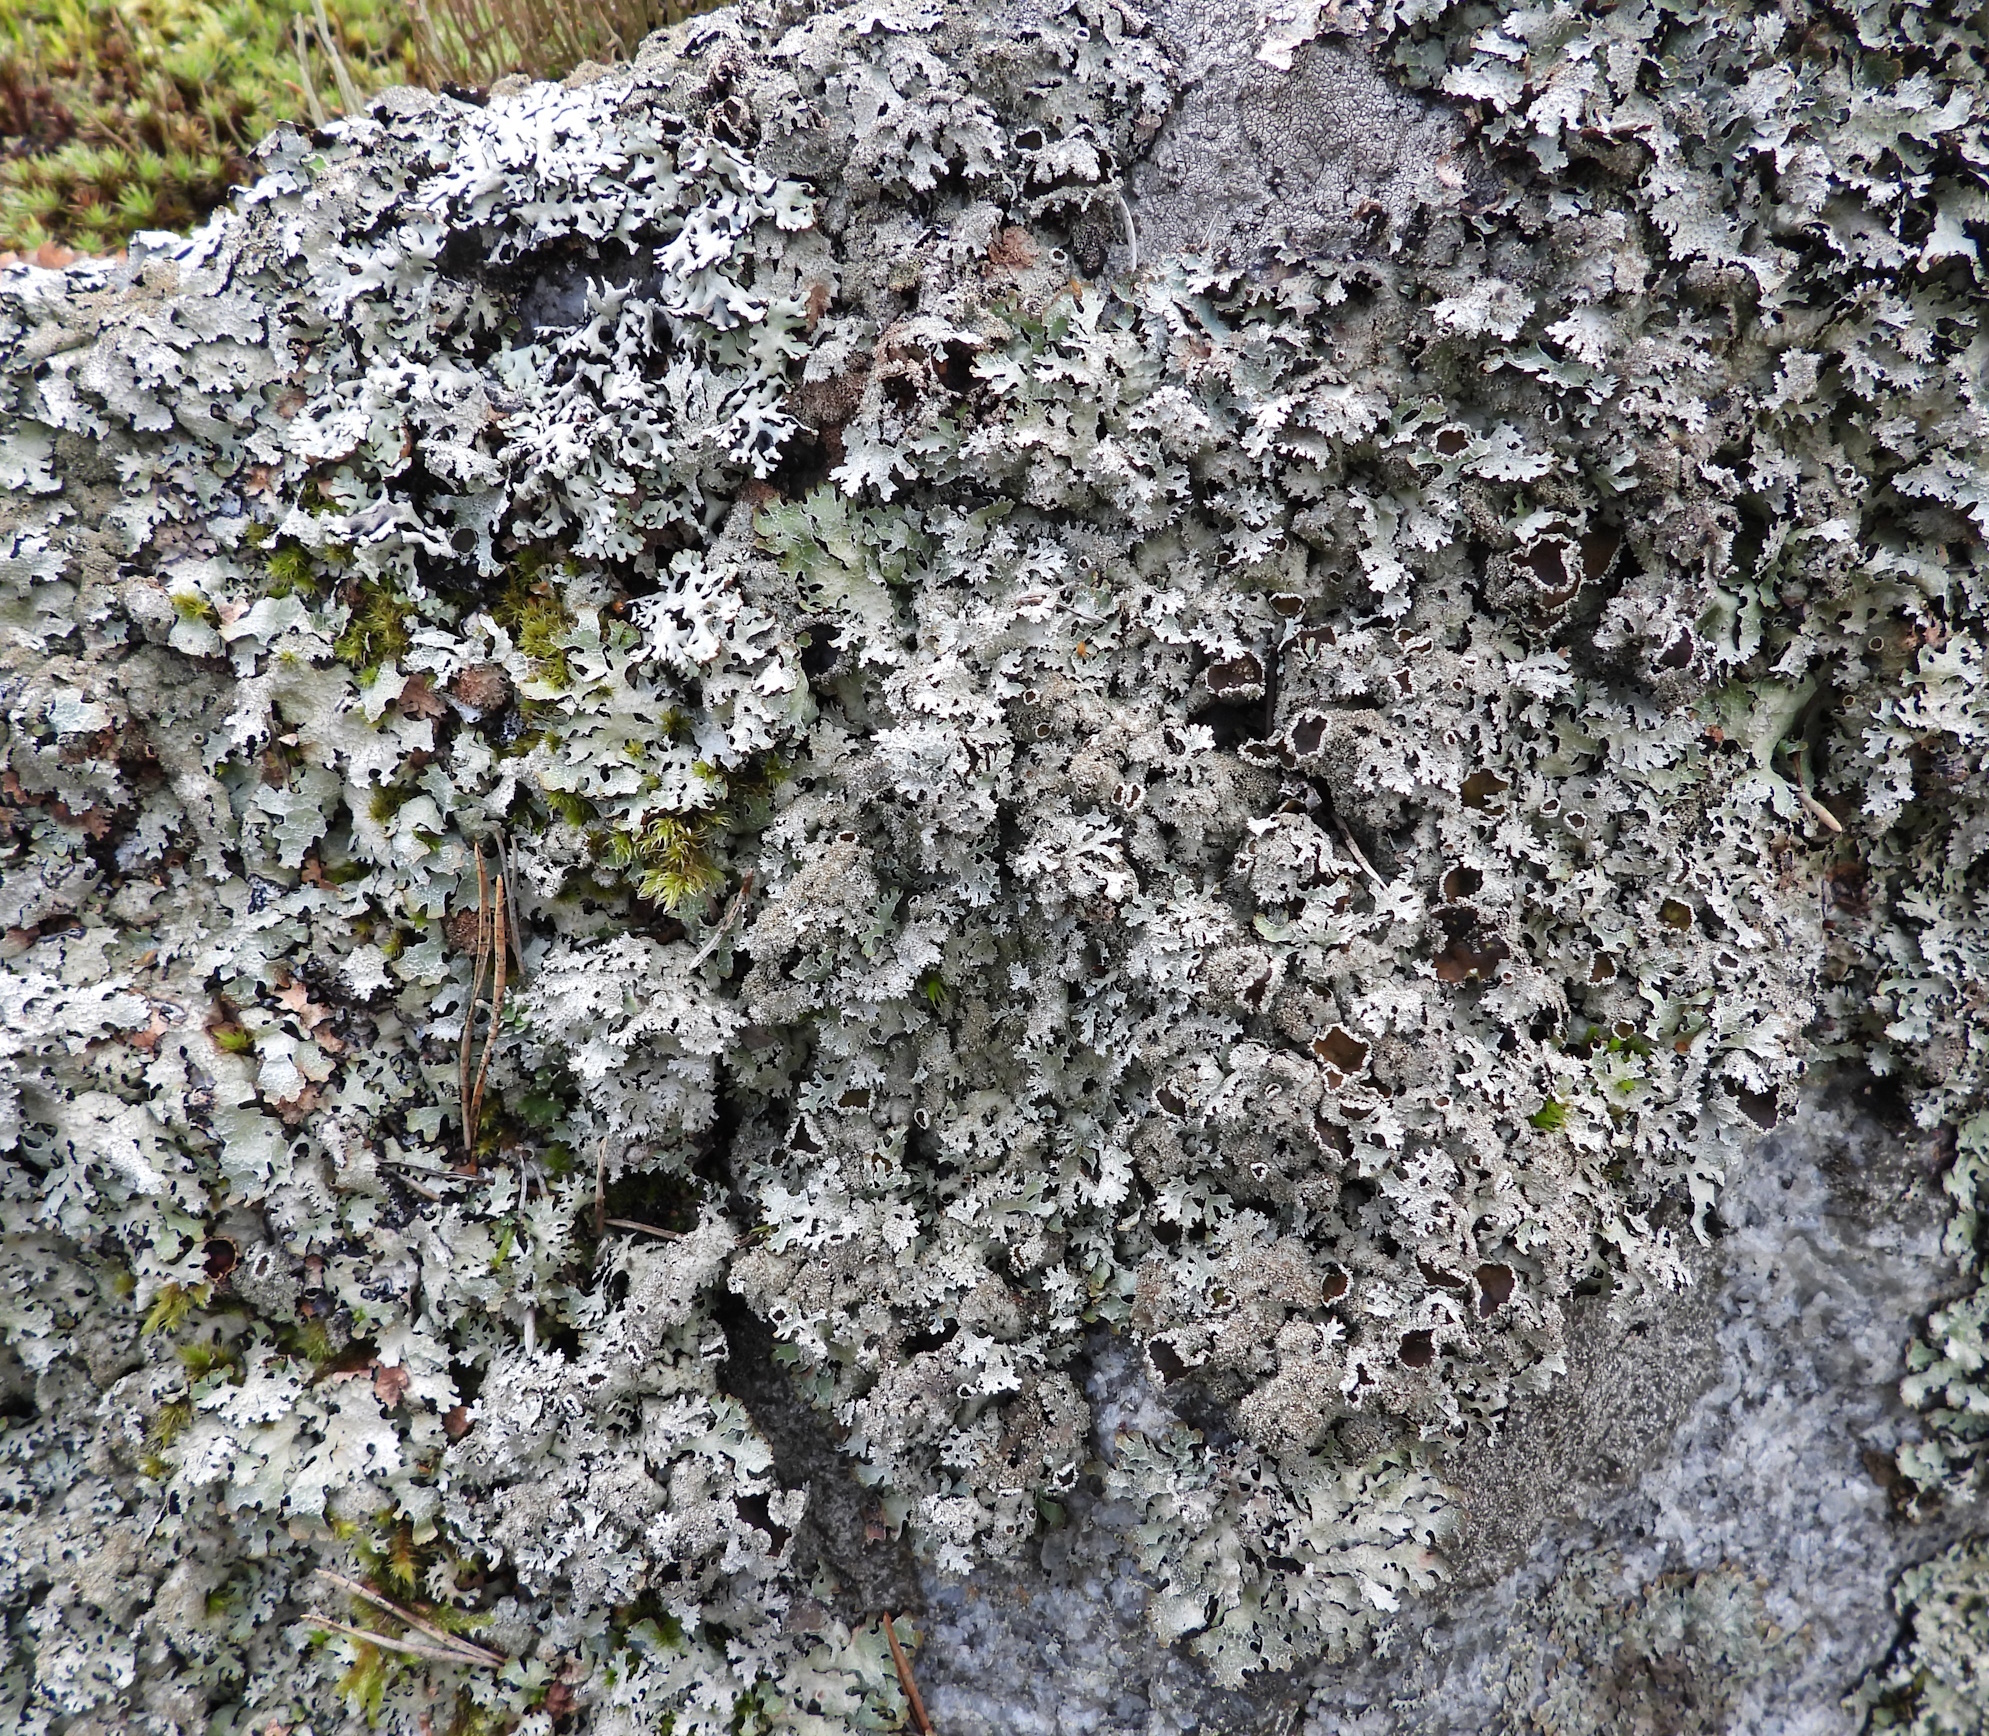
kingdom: Fungi
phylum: Ascomycota
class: Lecanoromycetes
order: Lecanorales
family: Parmeliaceae
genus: Parmelia
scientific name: Parmelia saxatilis
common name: Salted shield lichen
